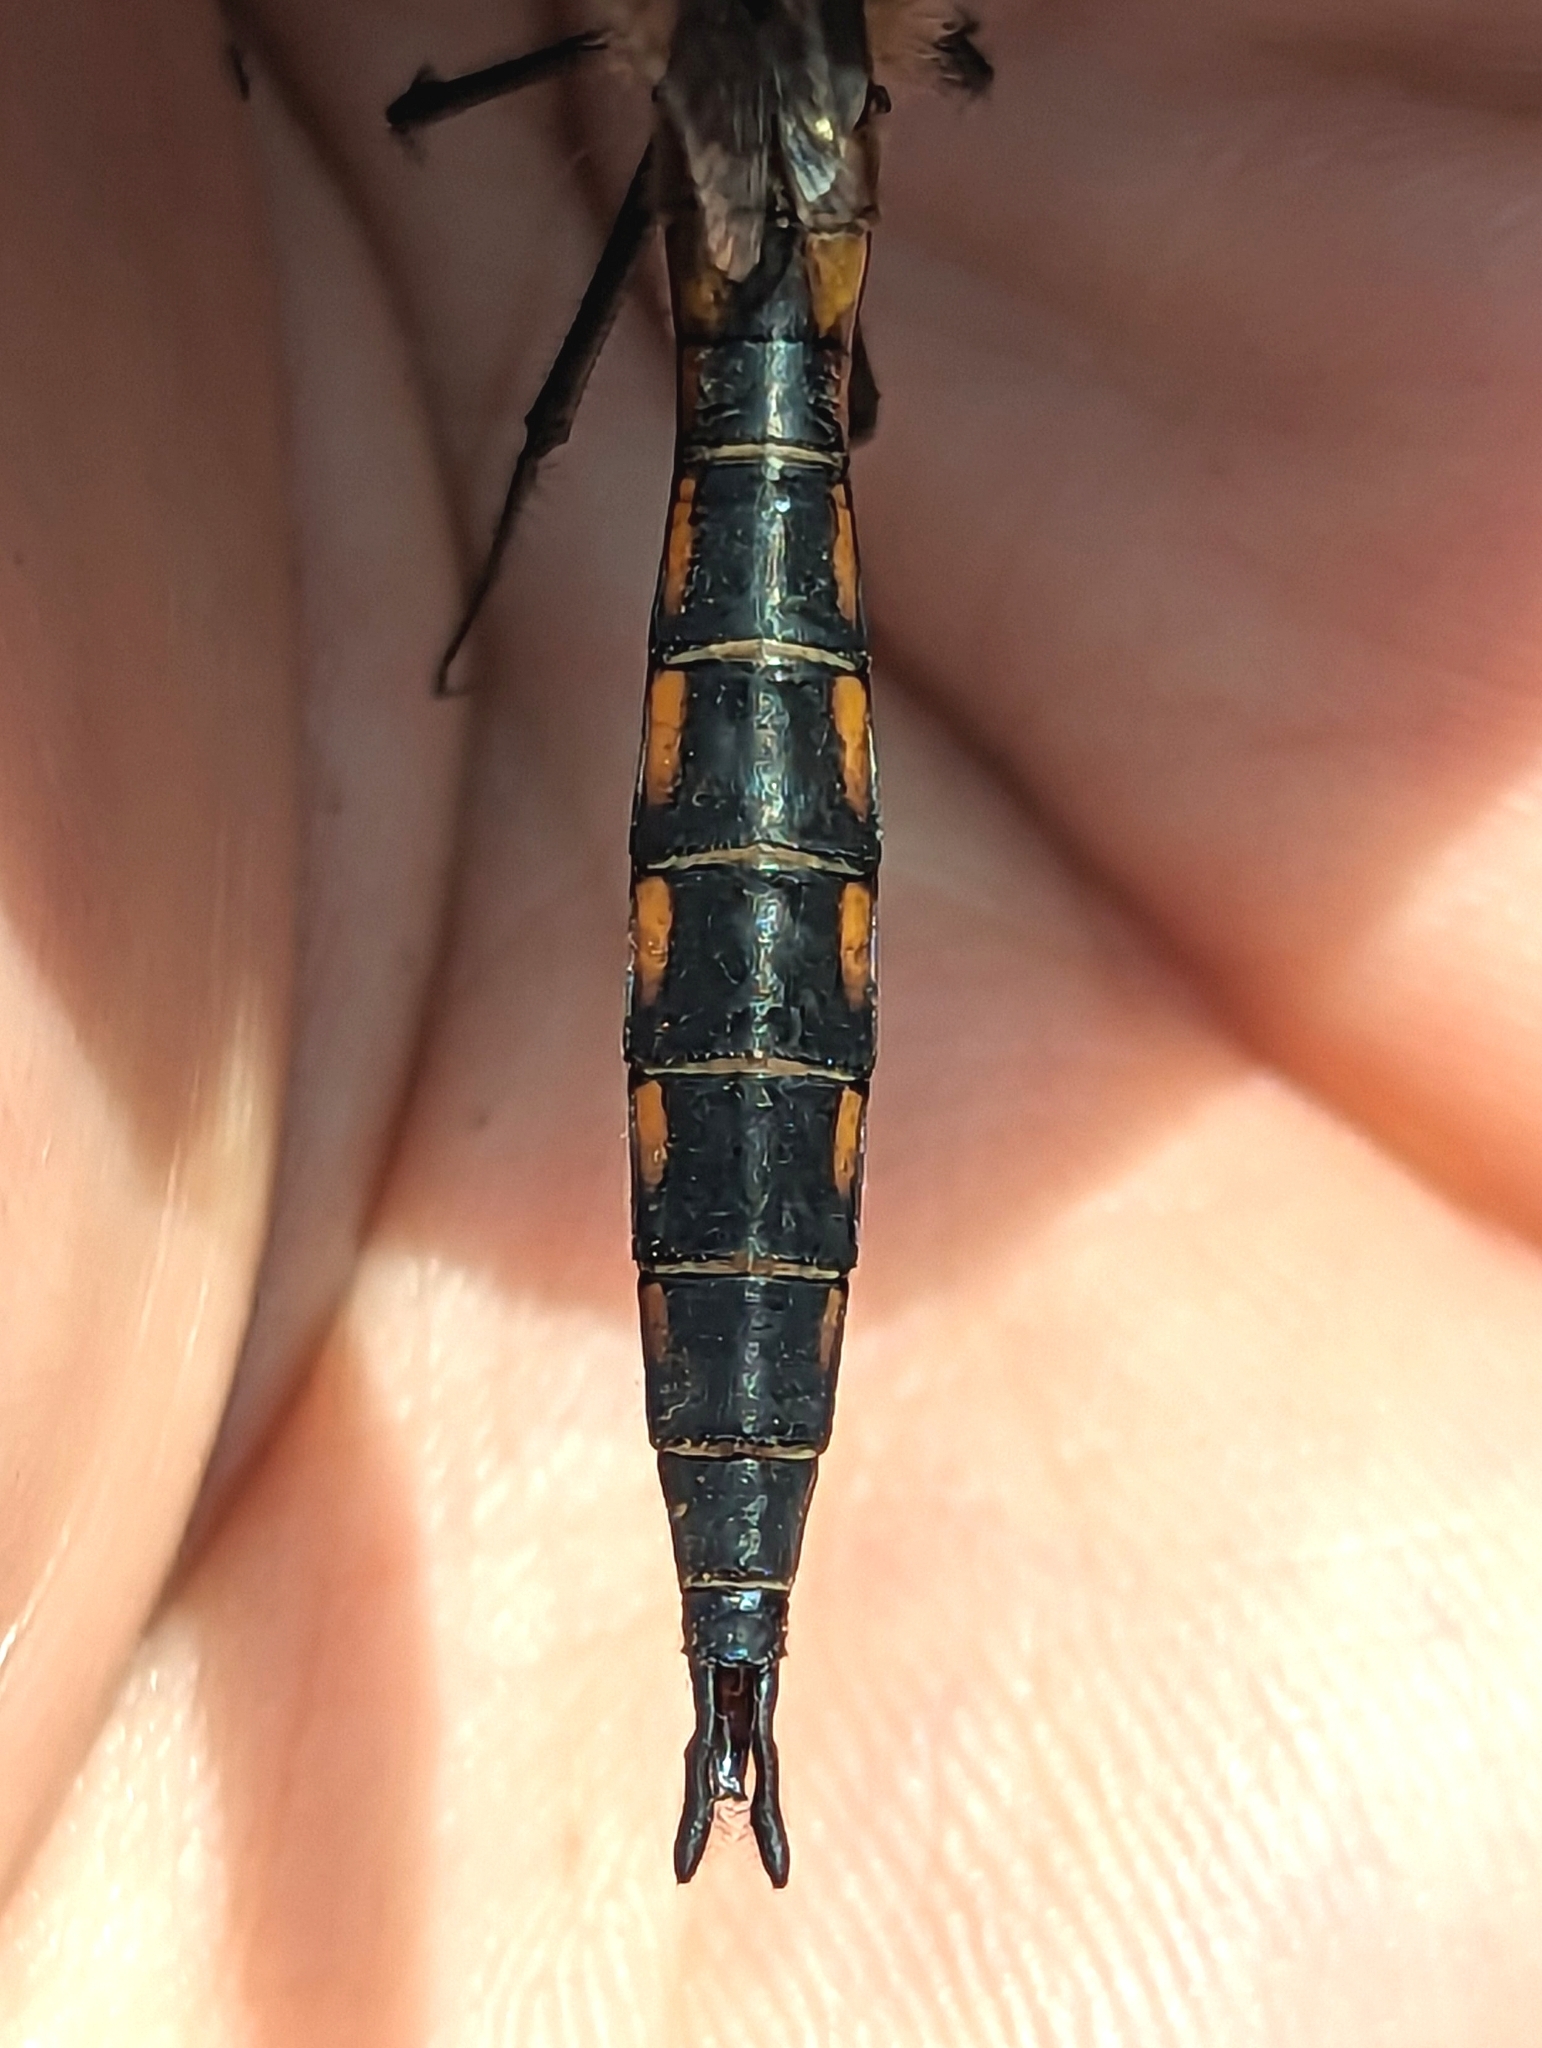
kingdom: Animalia
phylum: Arthropoda
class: Insecta
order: Odonata
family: Corduliidae
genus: Epitheca
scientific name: Epitheca spinigera
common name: Spiny baskettail
